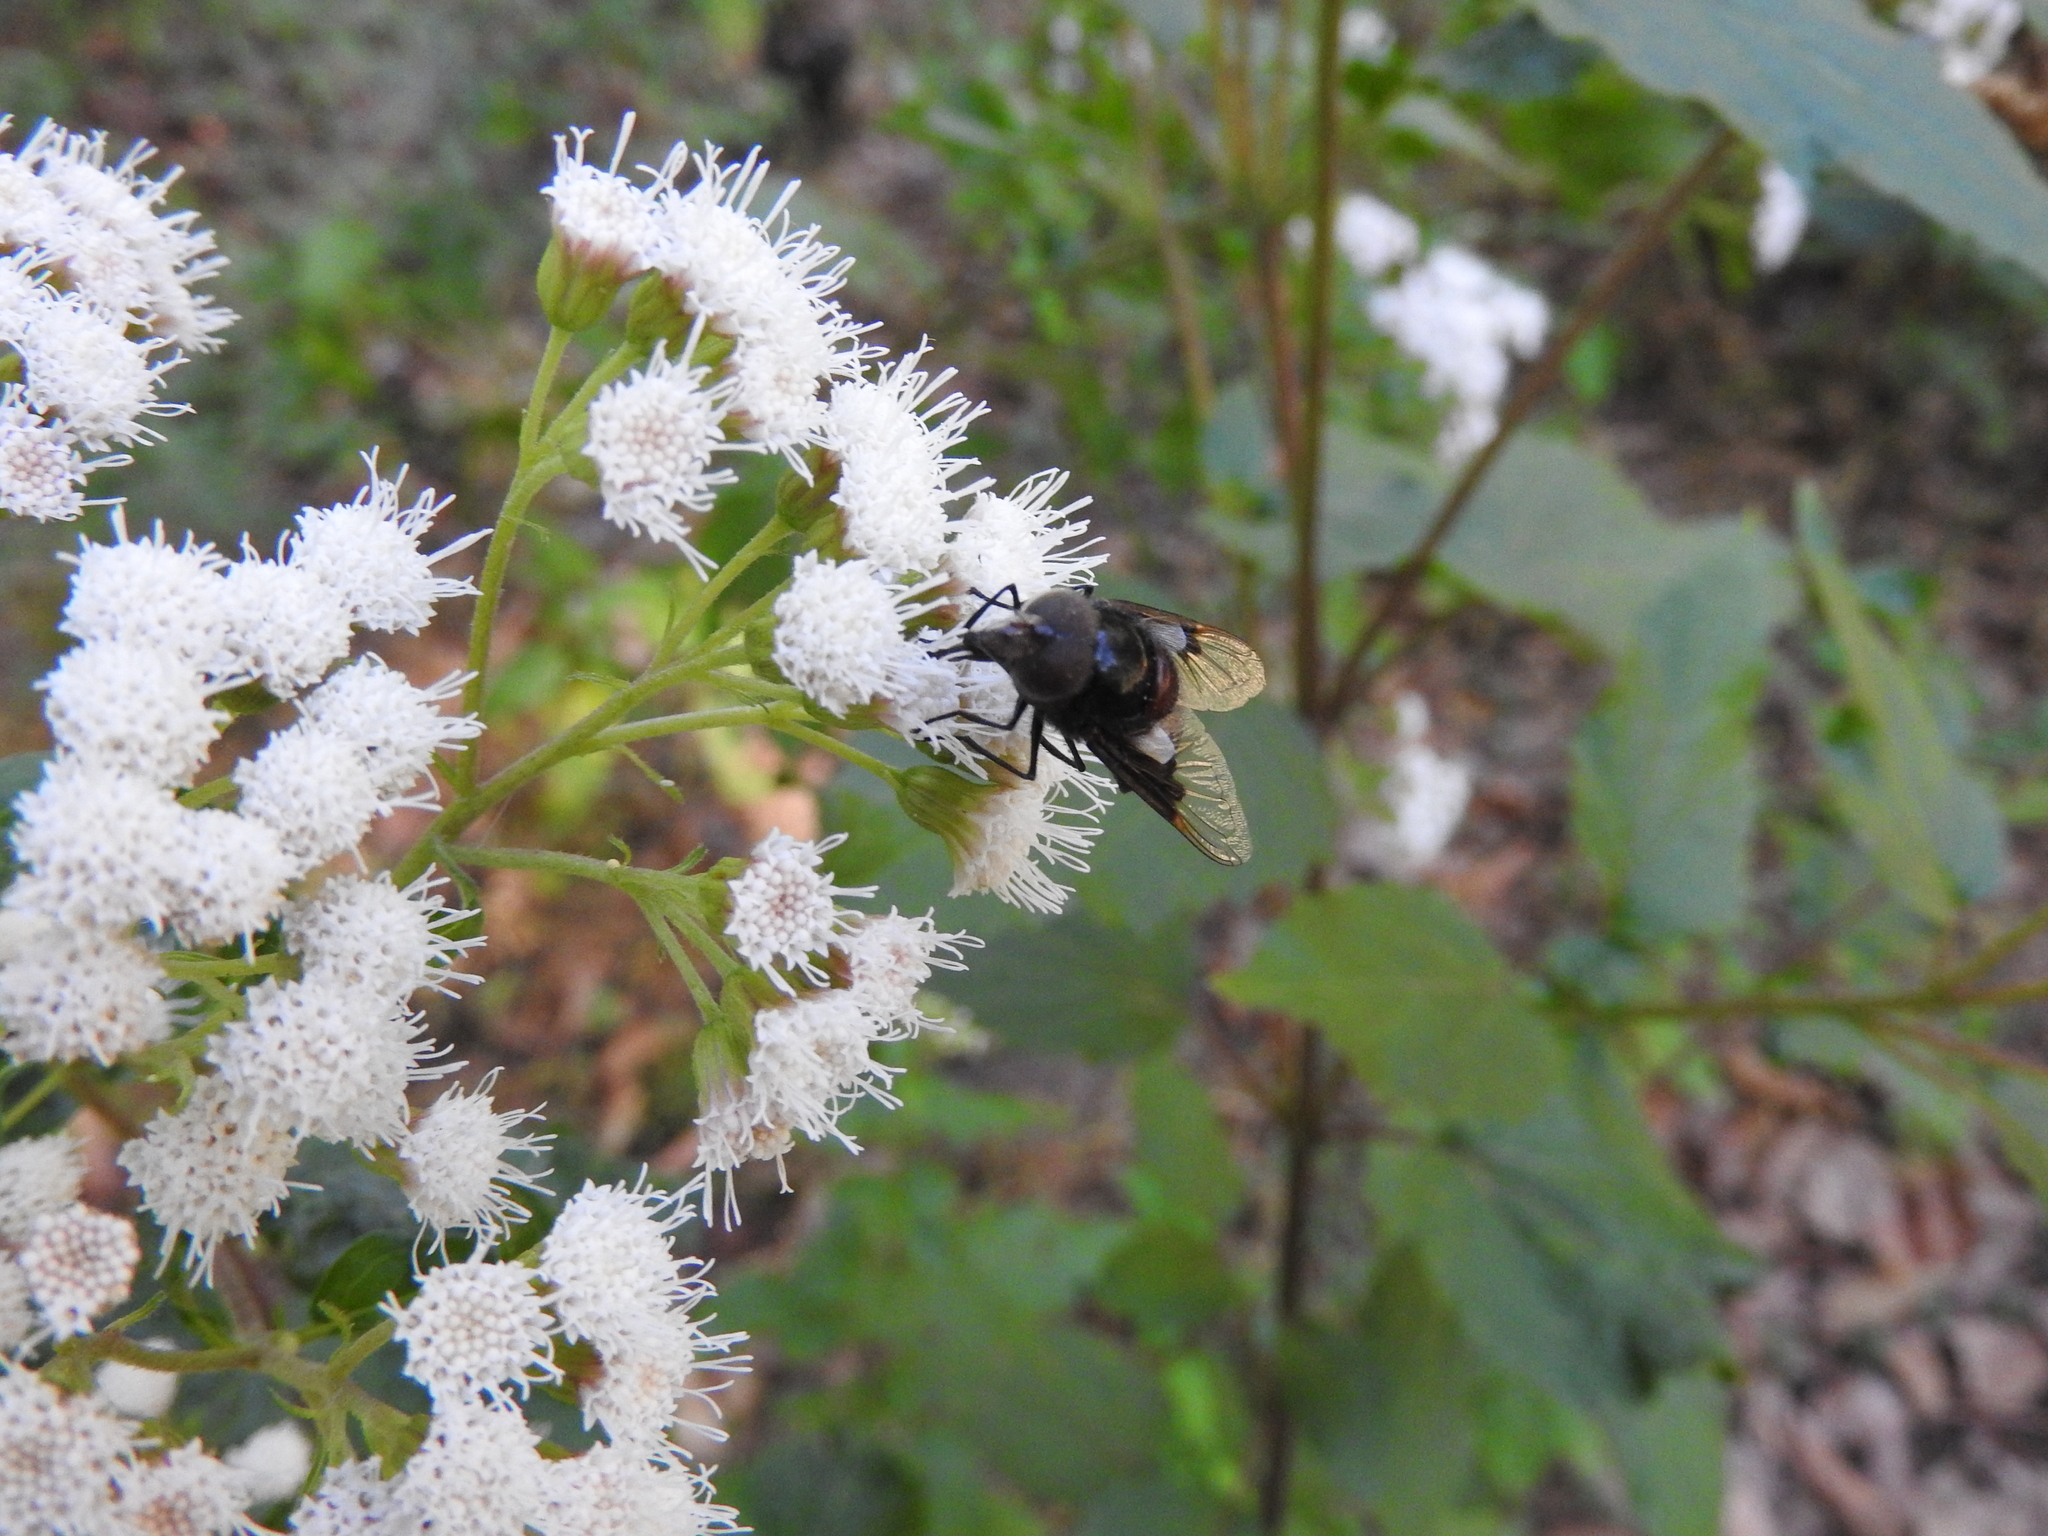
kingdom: Animalia
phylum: Arthropoda
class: Insecta
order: Diptera
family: Syrphidae
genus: Copestylum
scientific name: Copestylum
